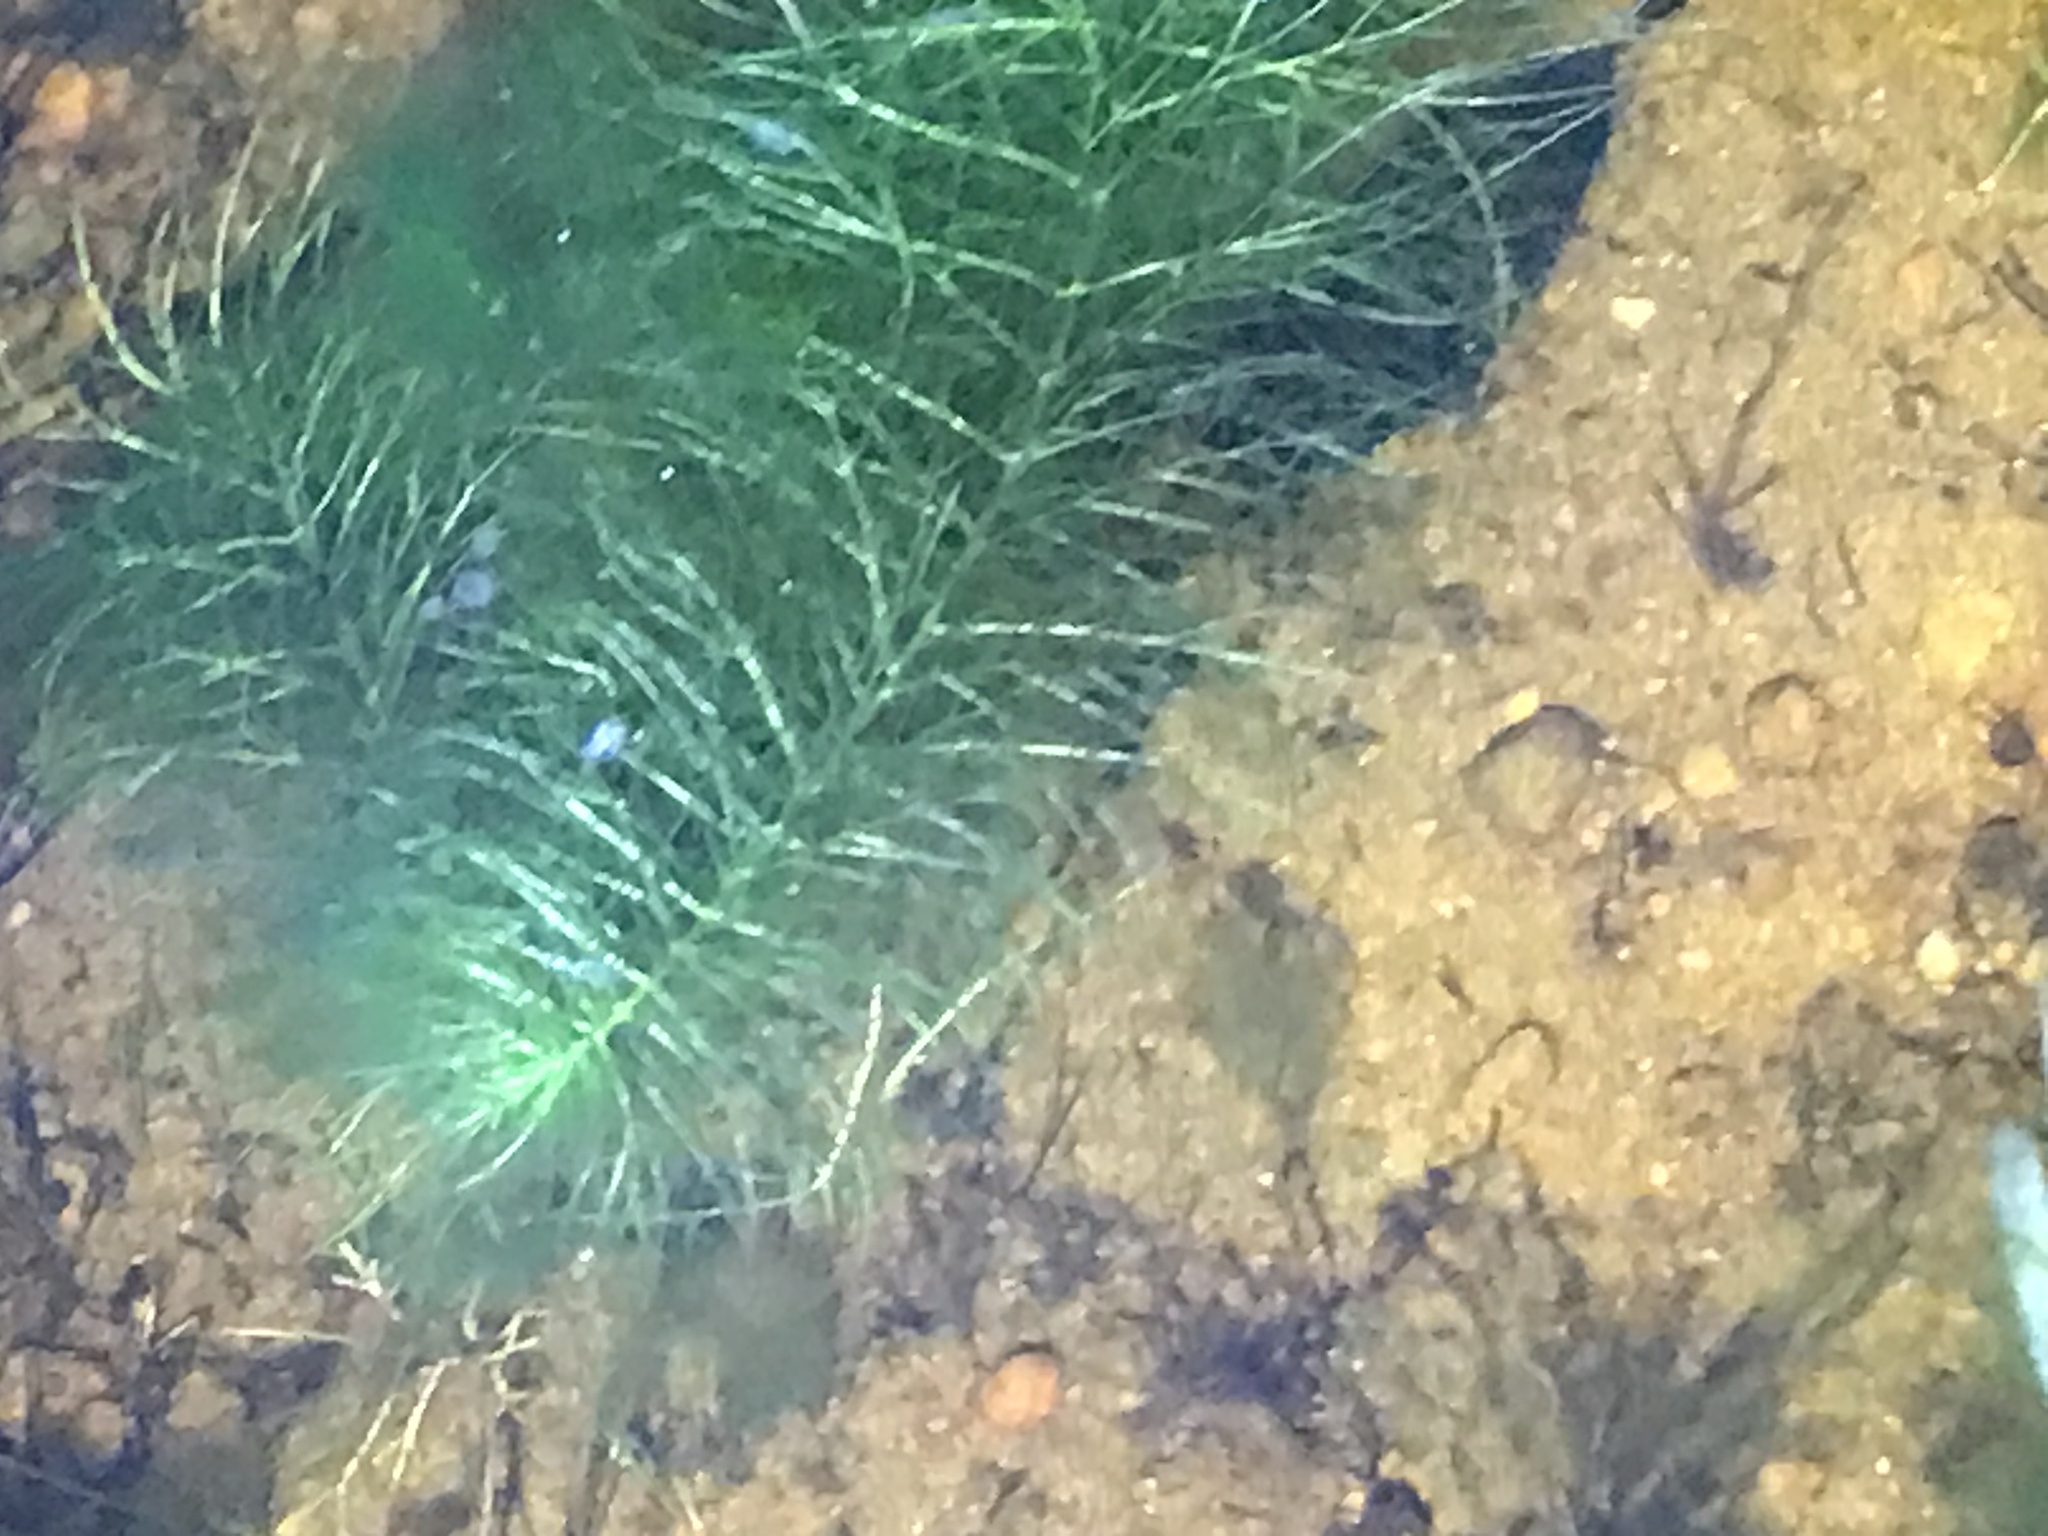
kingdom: Plantae
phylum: Tracheophyta
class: Magnoliopsida
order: Saxifragales
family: Haloragaceae
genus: Myriophyllum
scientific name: Myriophyllum
